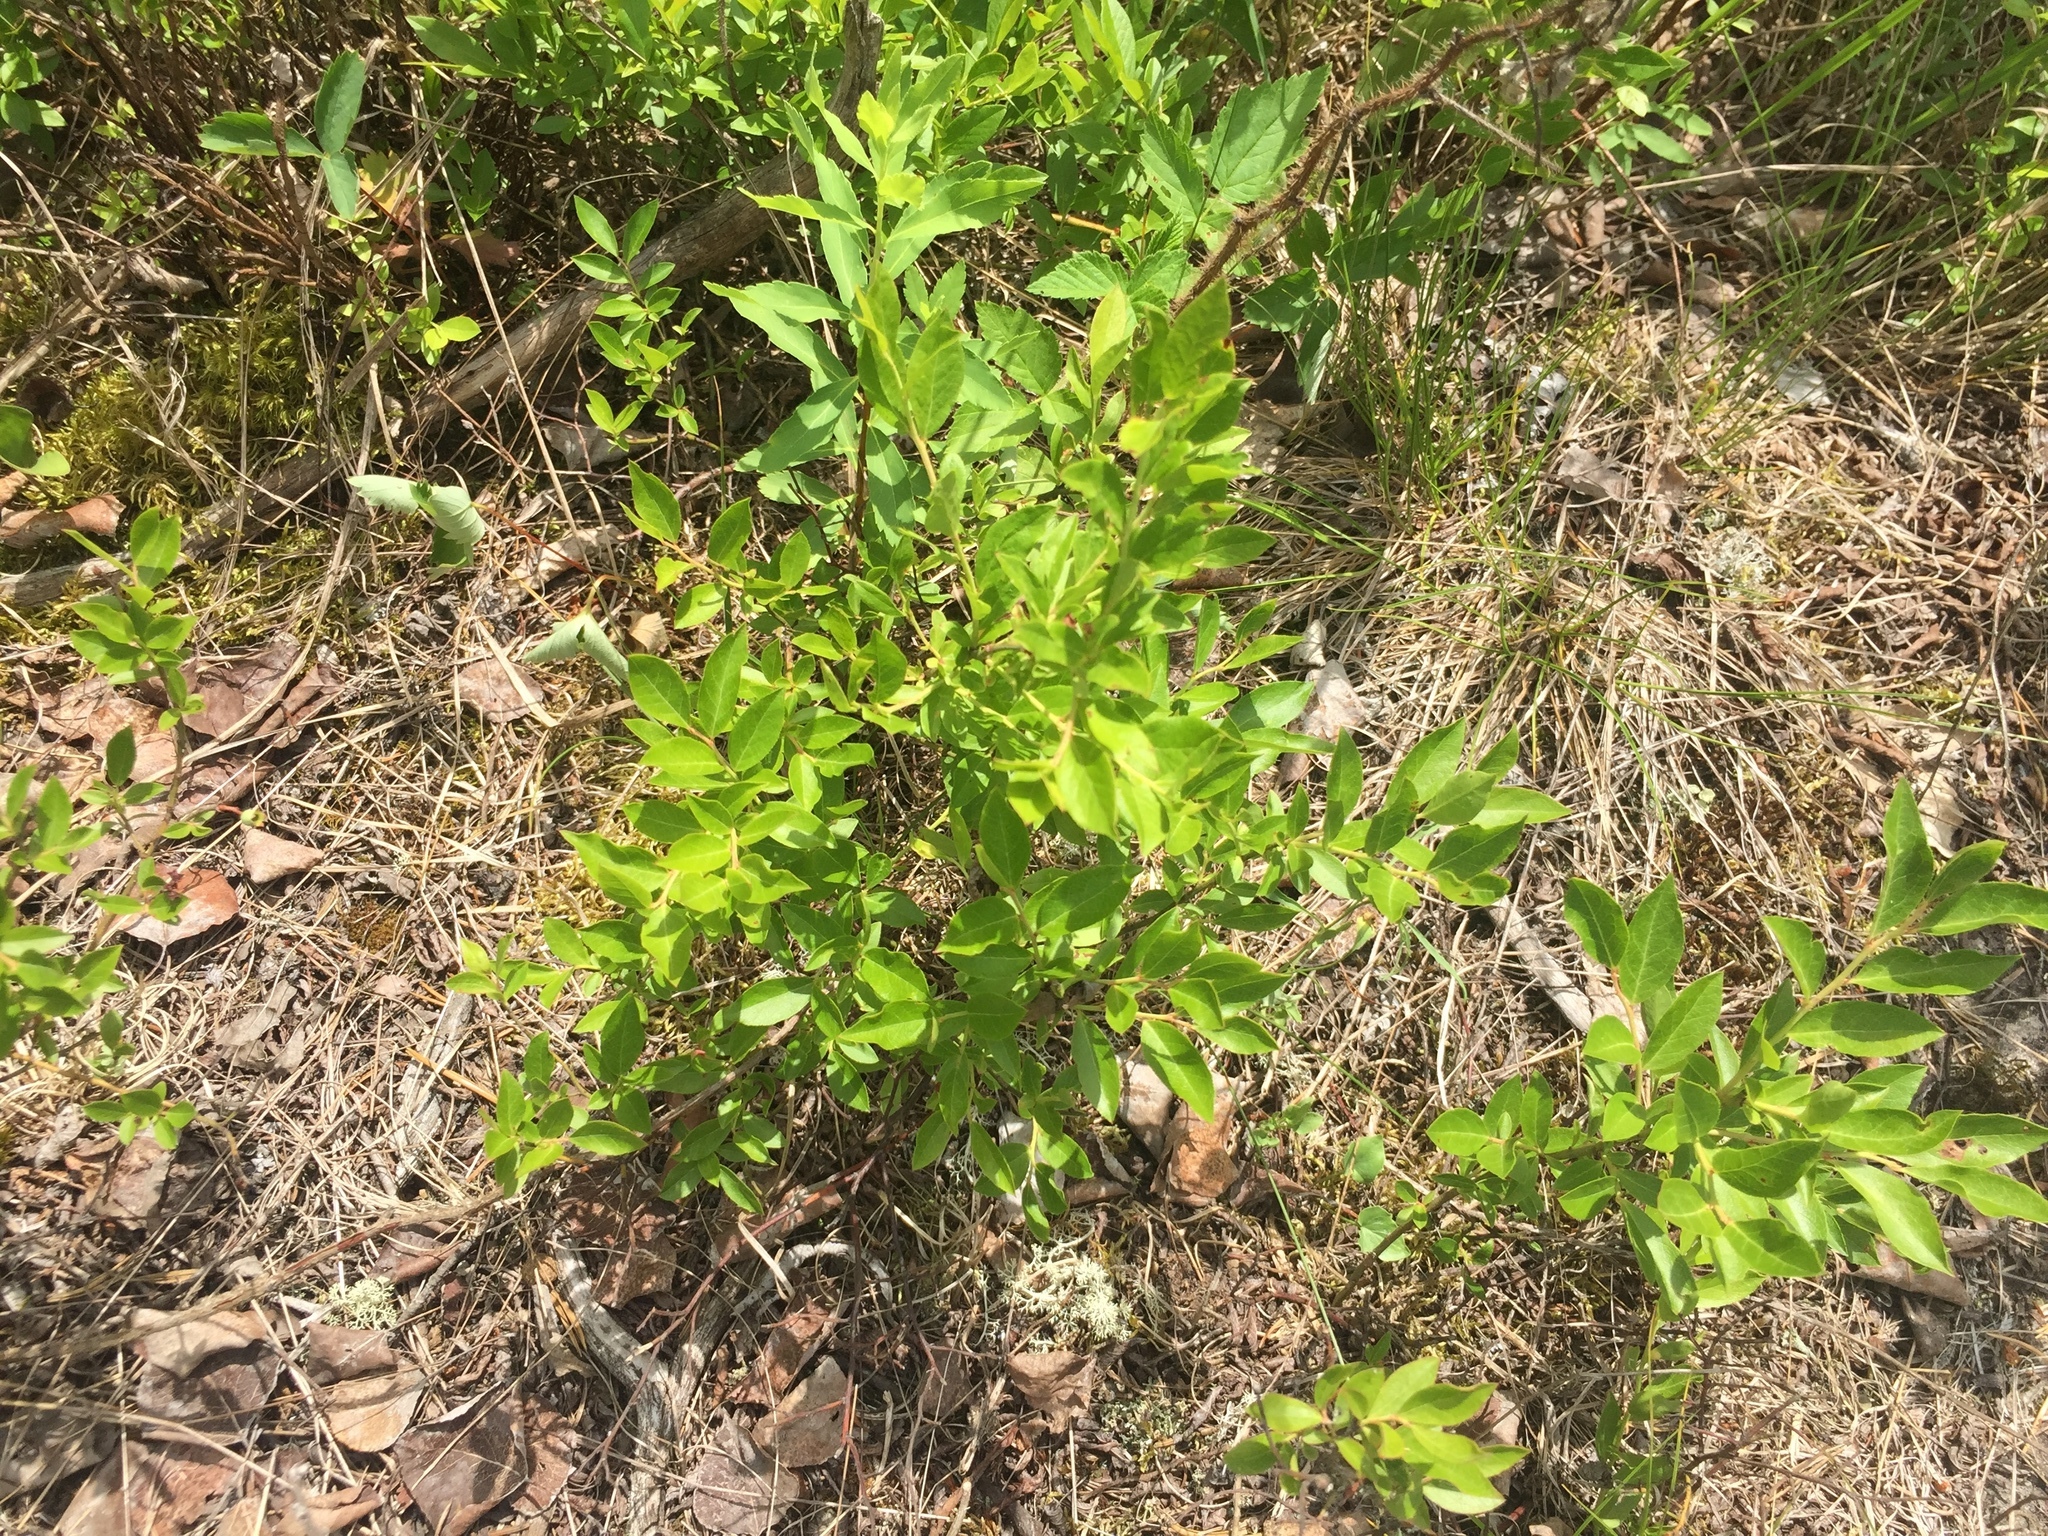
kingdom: Plantae
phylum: Tracheophyta
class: Magnoliopsida
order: Ericales
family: Ericaceae
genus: Vaccinium
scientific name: Vaccinium angustifolium
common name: Early lowbush blueberry
